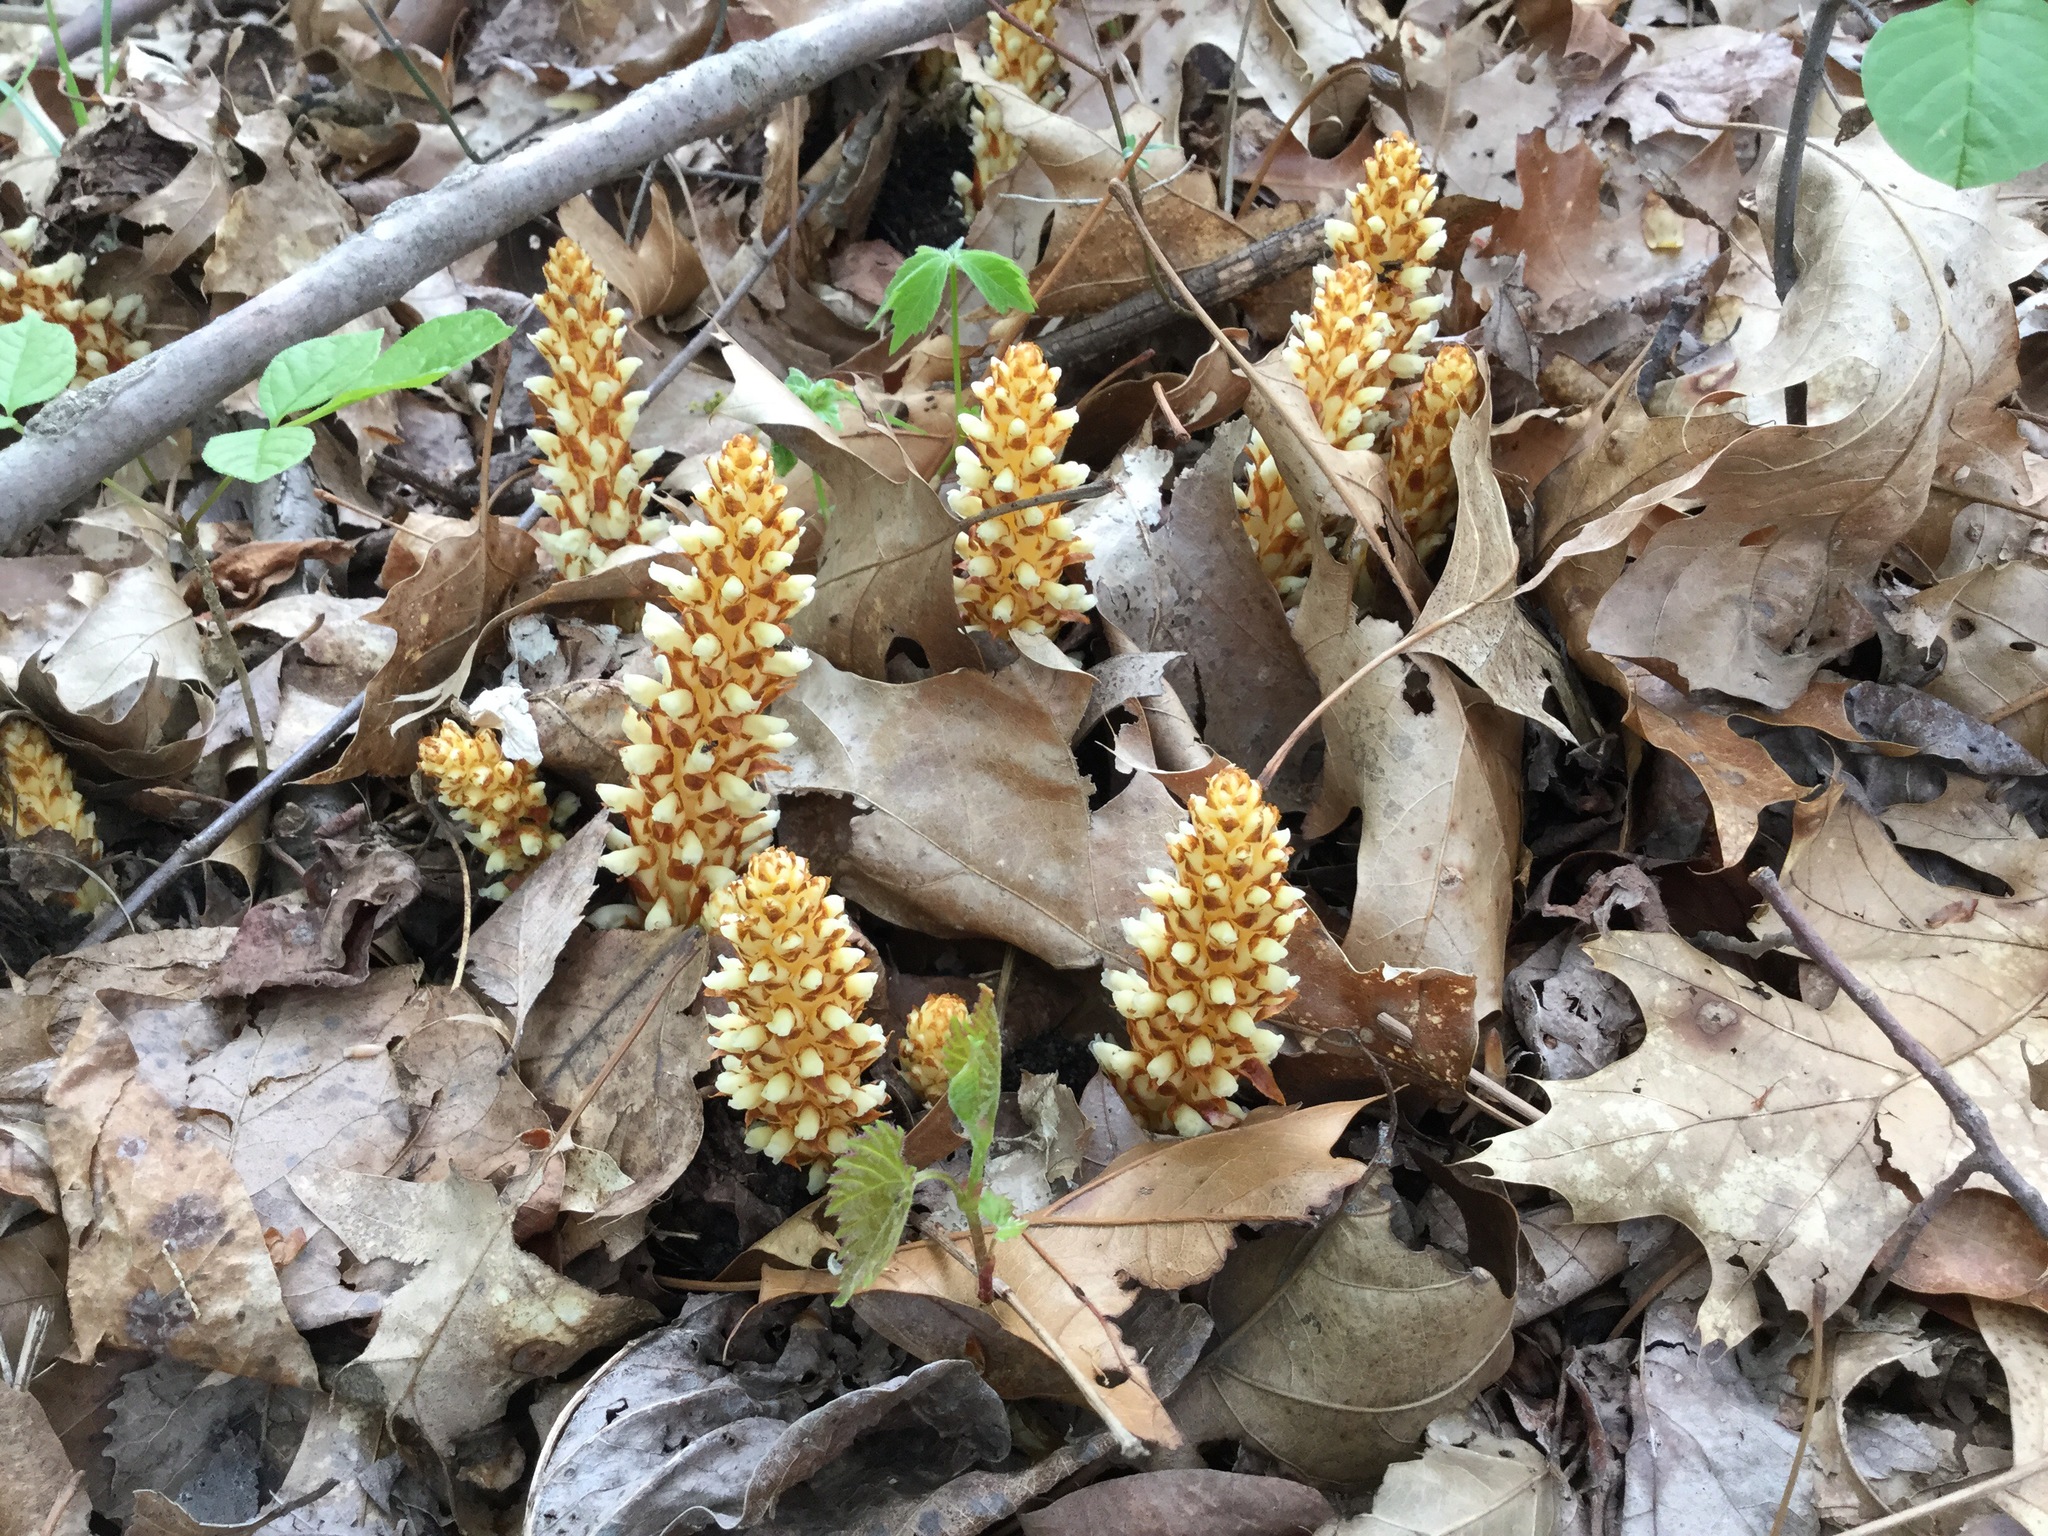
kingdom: Plantae
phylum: Tracheophyta
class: Magnoliopsida
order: Lamiales
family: Orobanchaceae
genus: Conopholis
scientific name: Conopholis americana
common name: American cancer-root
